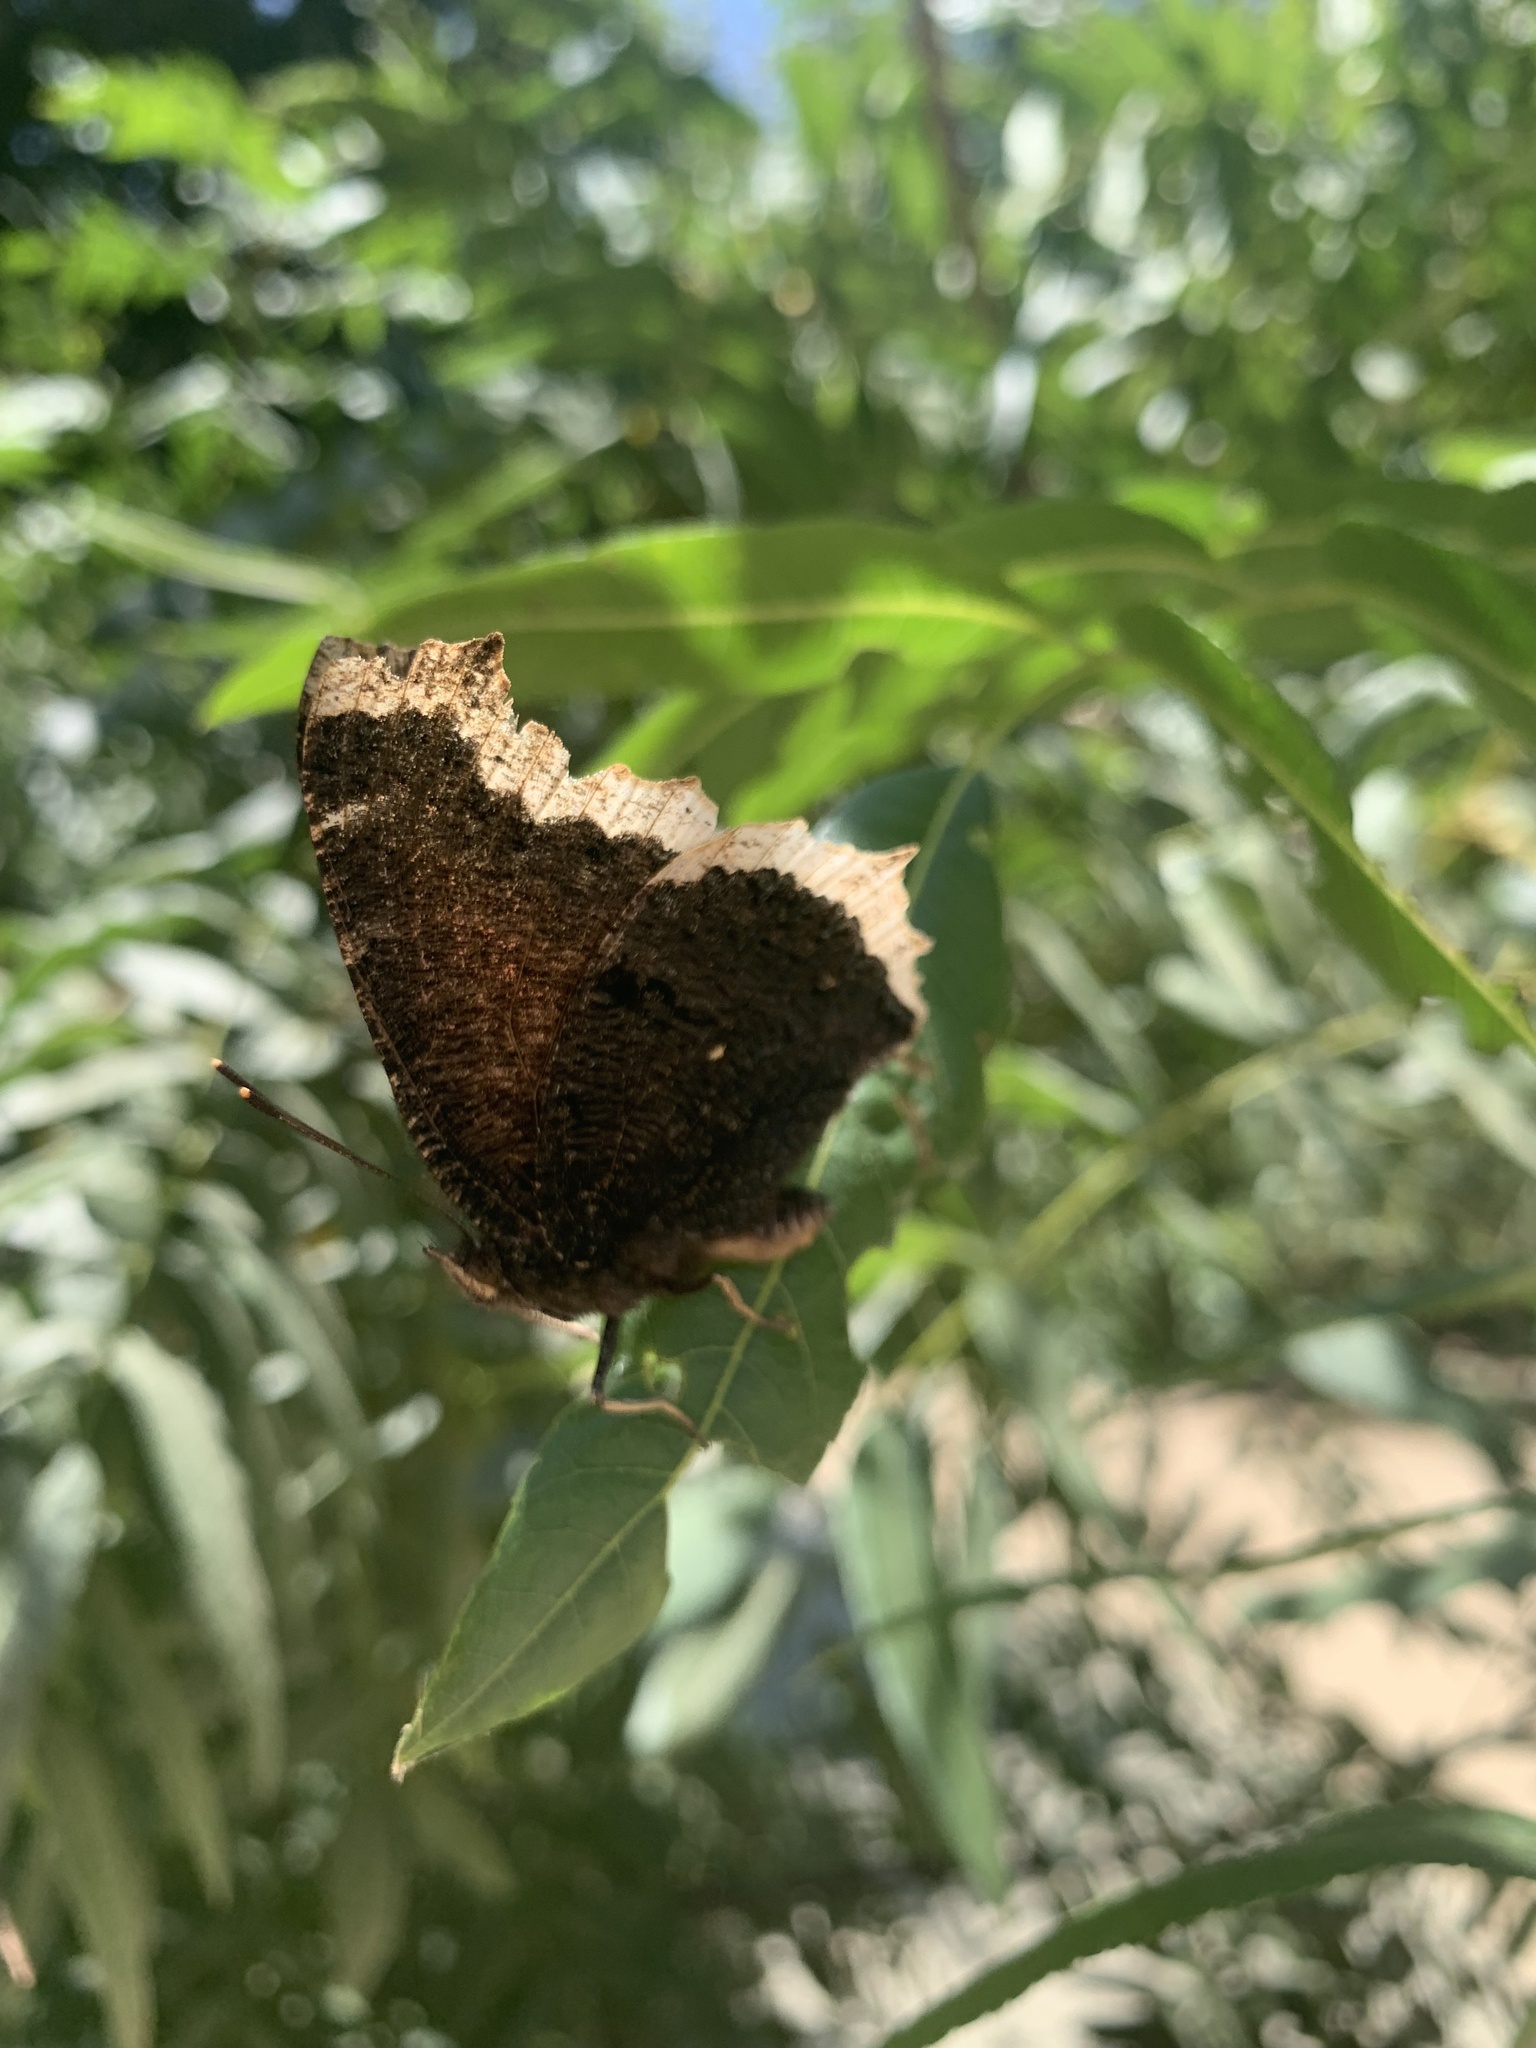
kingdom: Animalia
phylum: Arthropoda
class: Insecta
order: Lepidoptera
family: Nymphalidae
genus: Nymphalis
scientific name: Nymphalis antiopa
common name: Camberwell beauty
